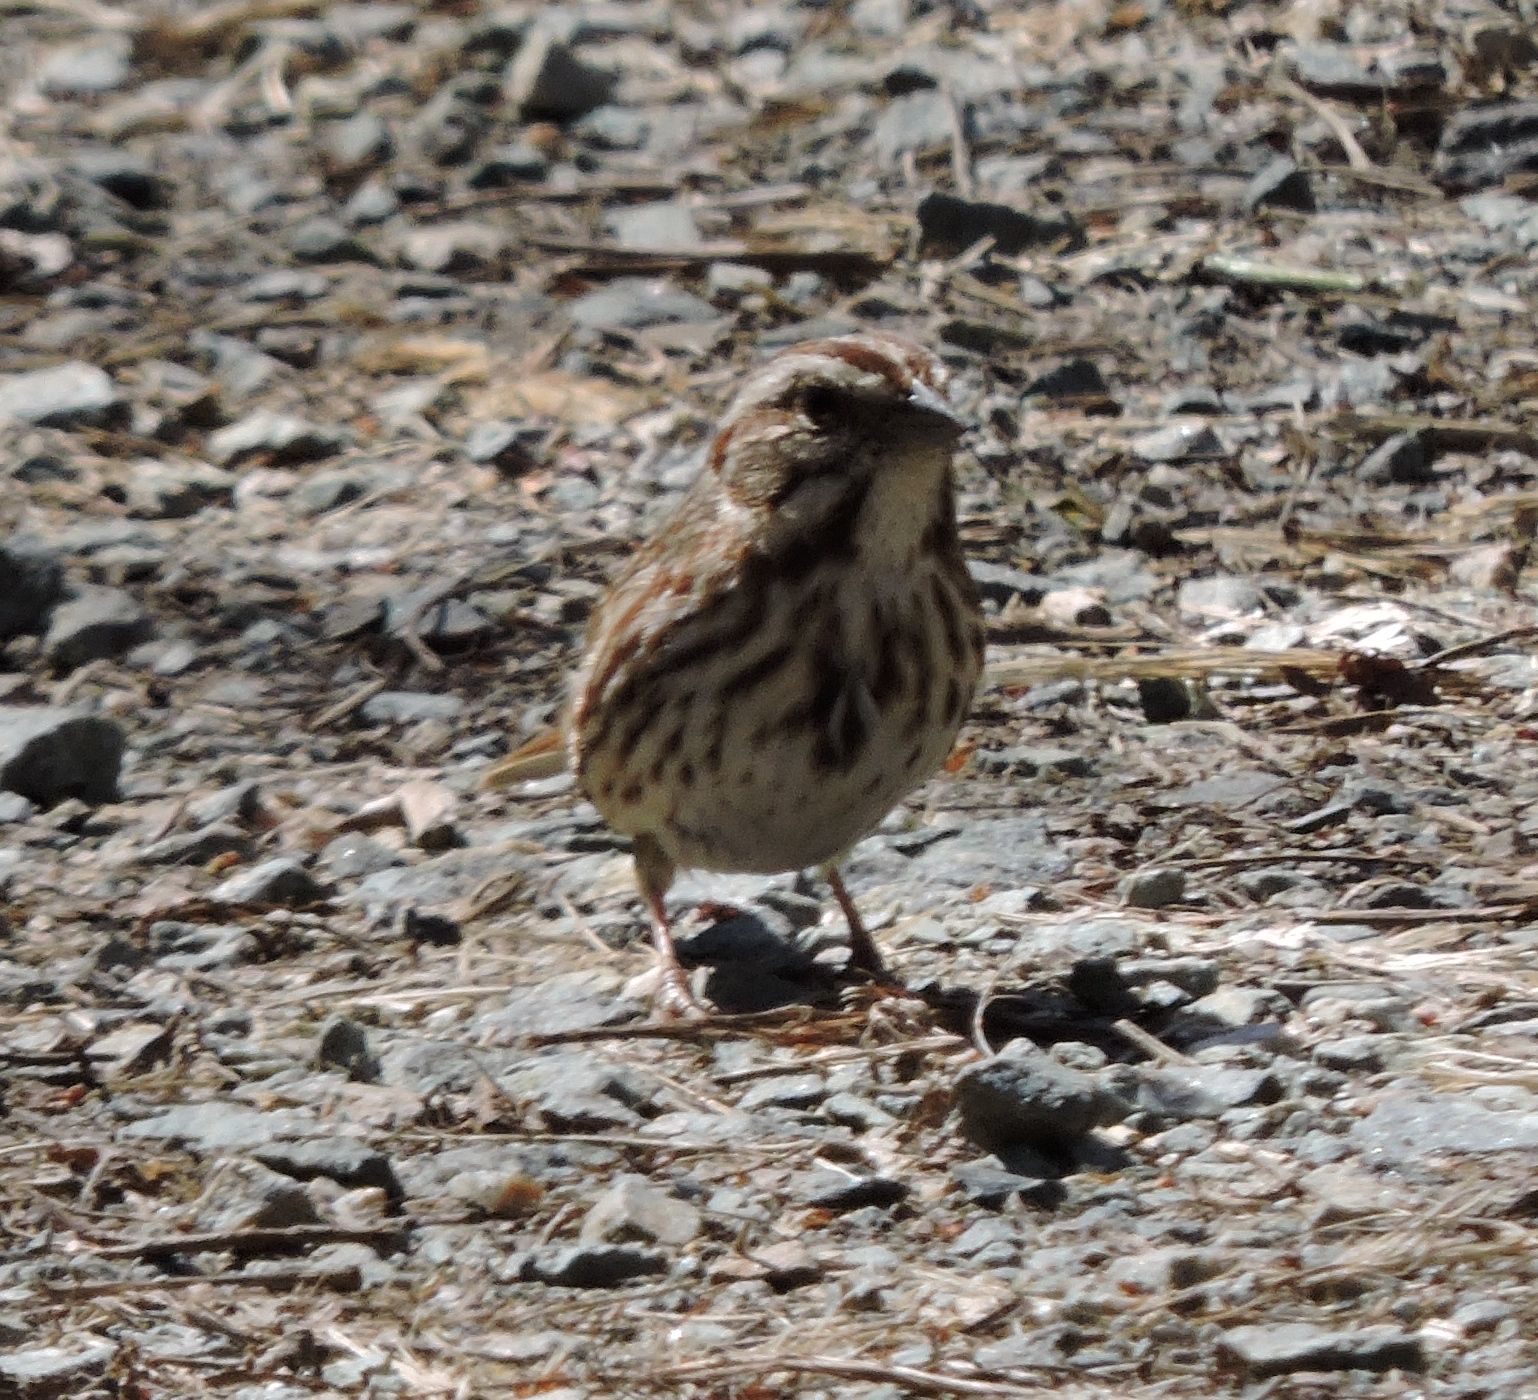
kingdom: Animalia
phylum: Chordata
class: Aves
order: Passeriformes
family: Passerellidae
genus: Melospiza
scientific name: Melospiza melodia
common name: Song sparrow
